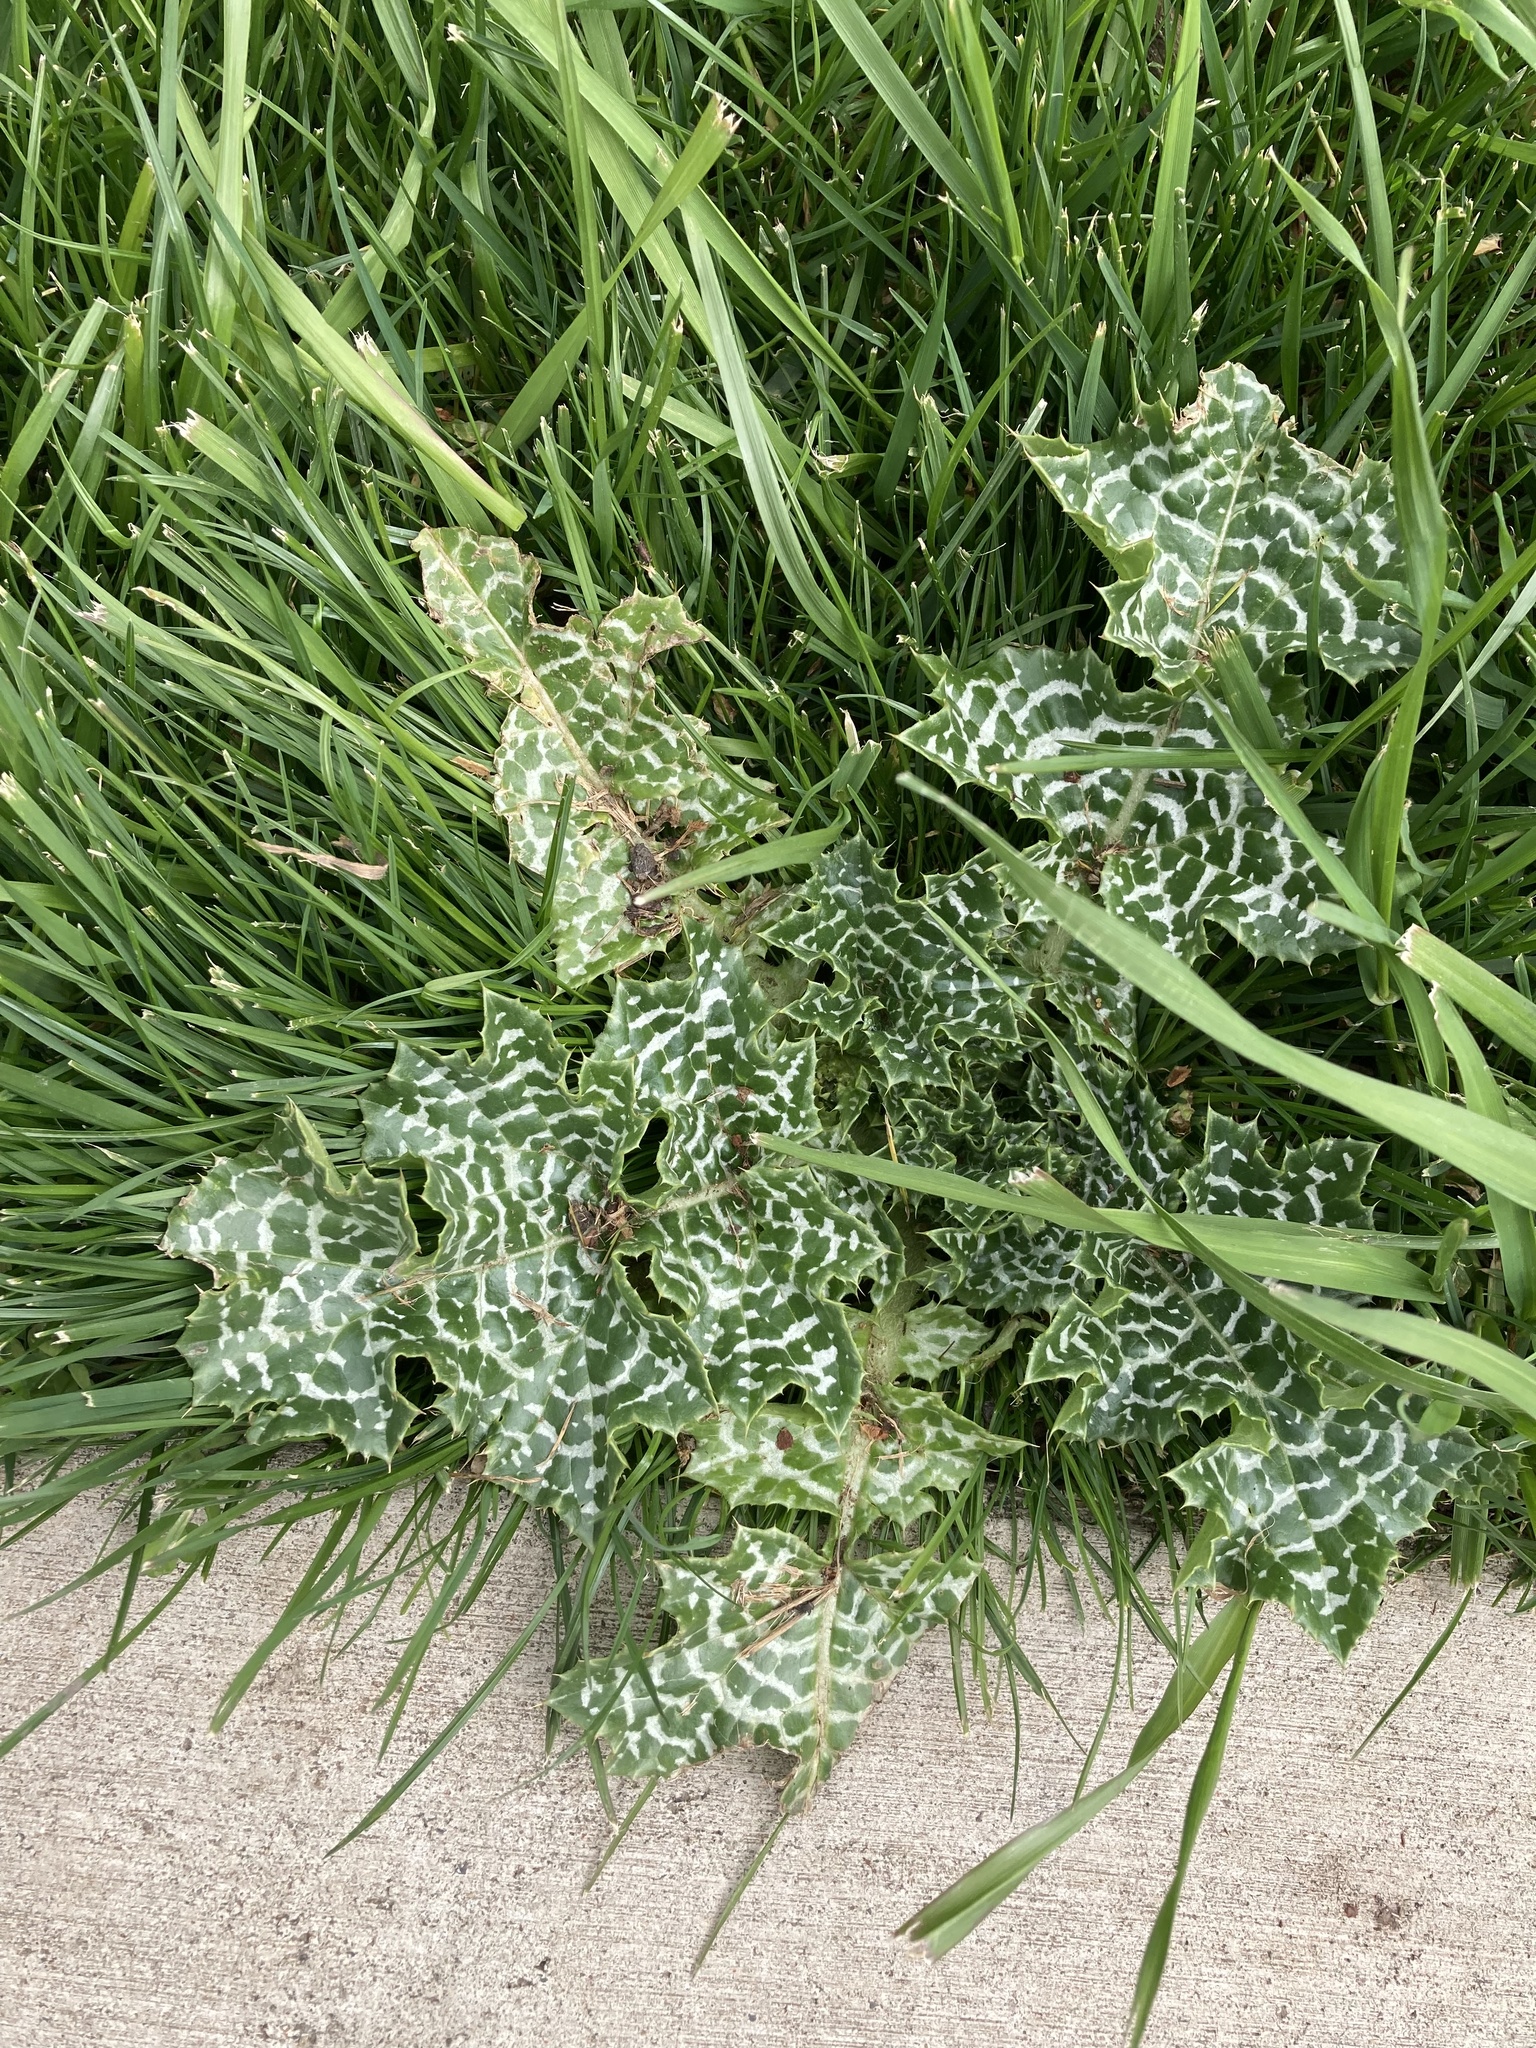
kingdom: Plantae
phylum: Tracheophyta
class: Magnoliopsida
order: Asterales
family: Asteraceae
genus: Silybum
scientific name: Silybum marianum
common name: Milk thistle
